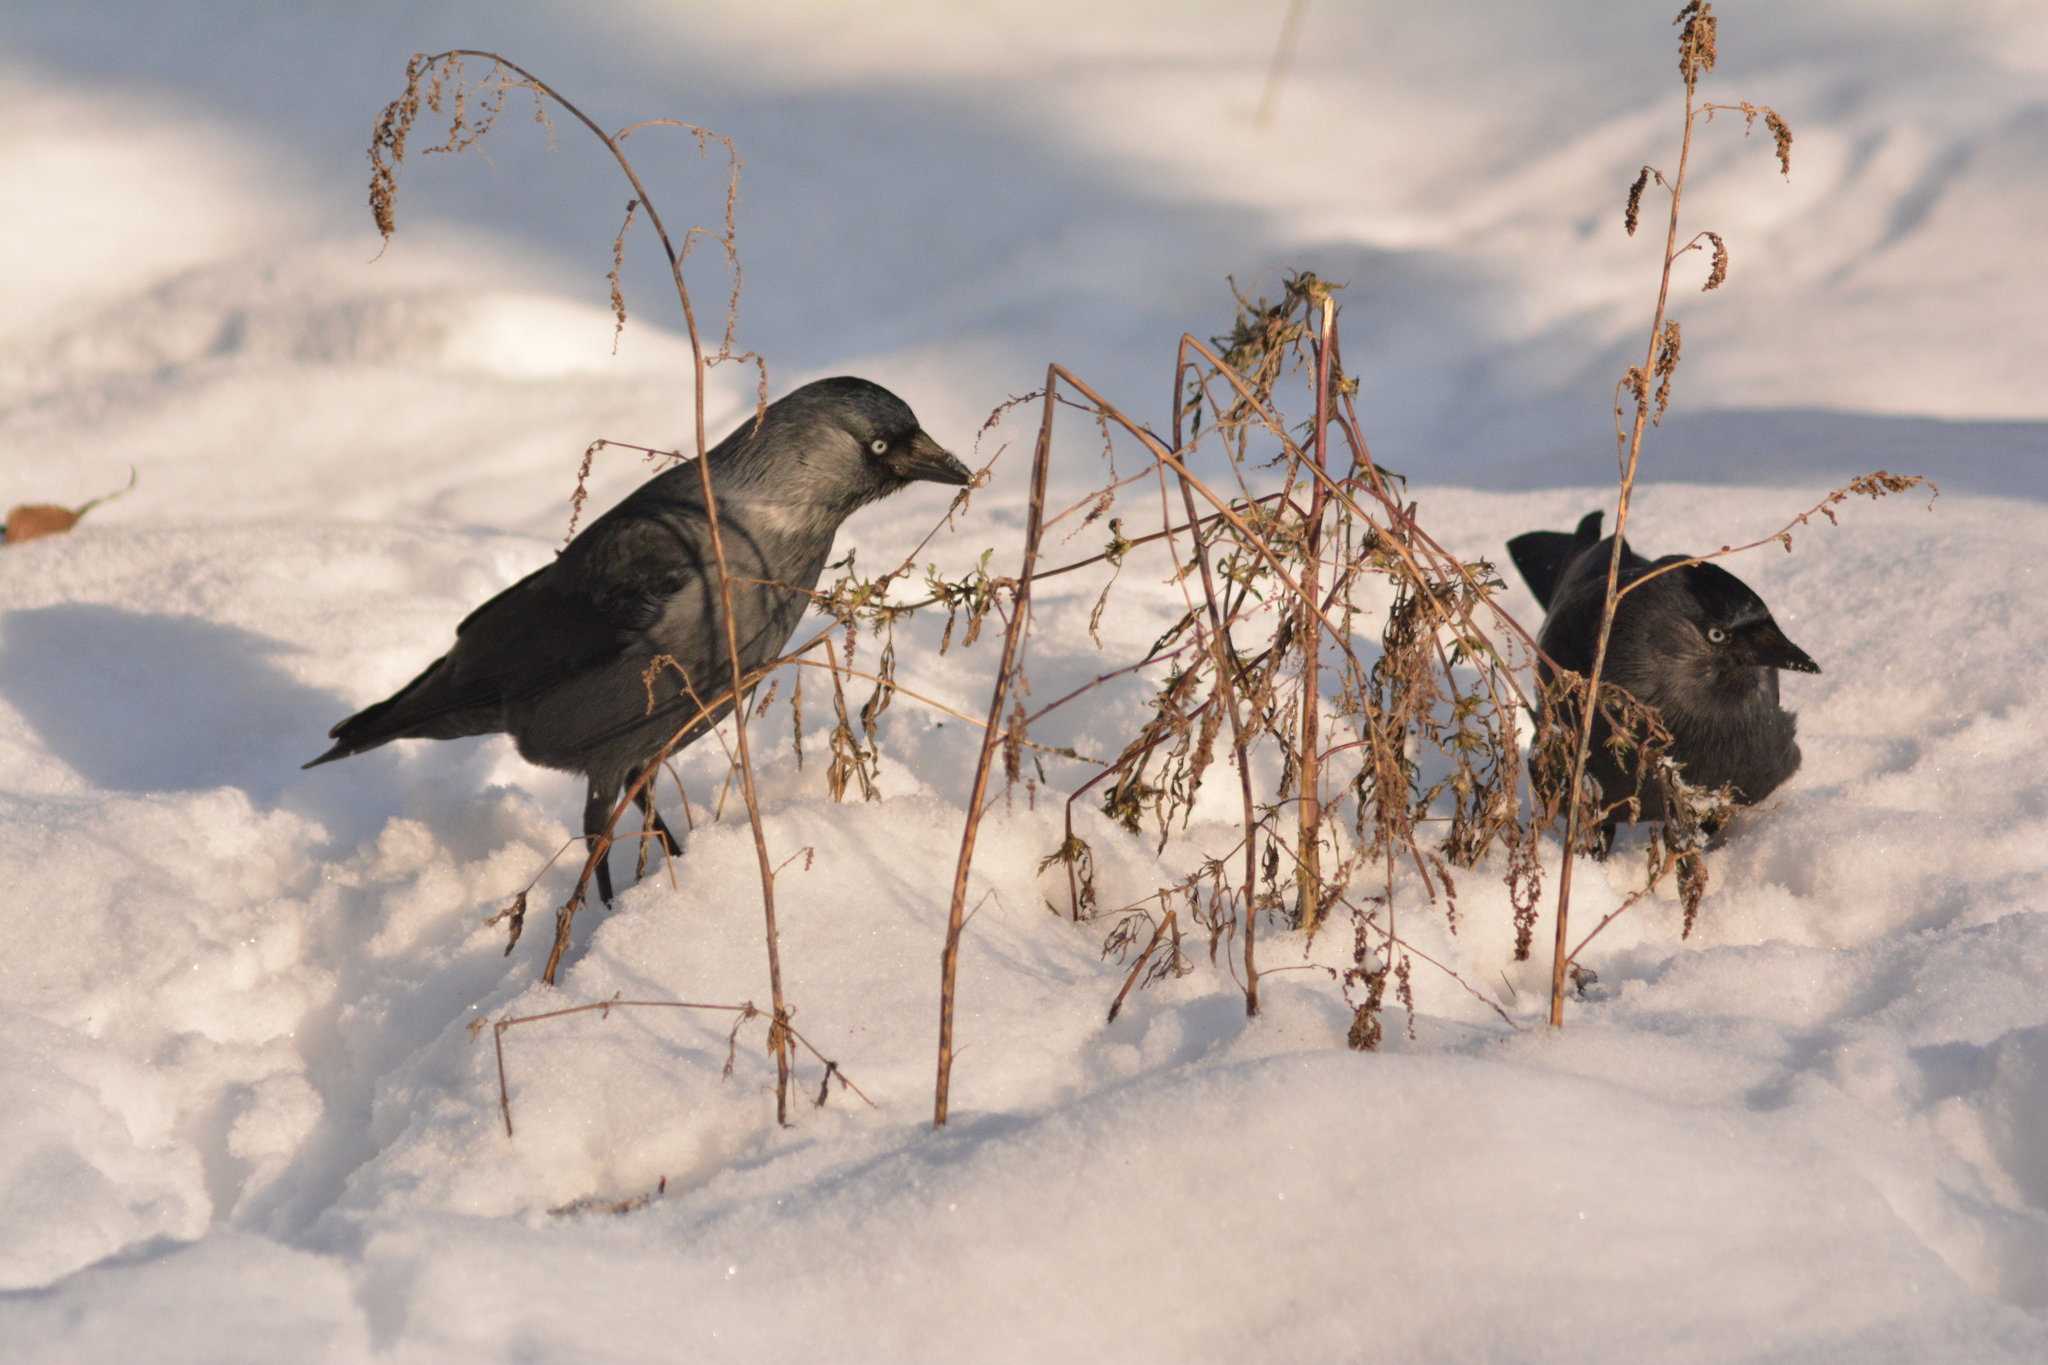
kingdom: Animalia
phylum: Chordata
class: Aves
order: Passeriformes
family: Corvidae
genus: Coloeus
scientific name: Coloeus monedula
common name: Western jackdaw
